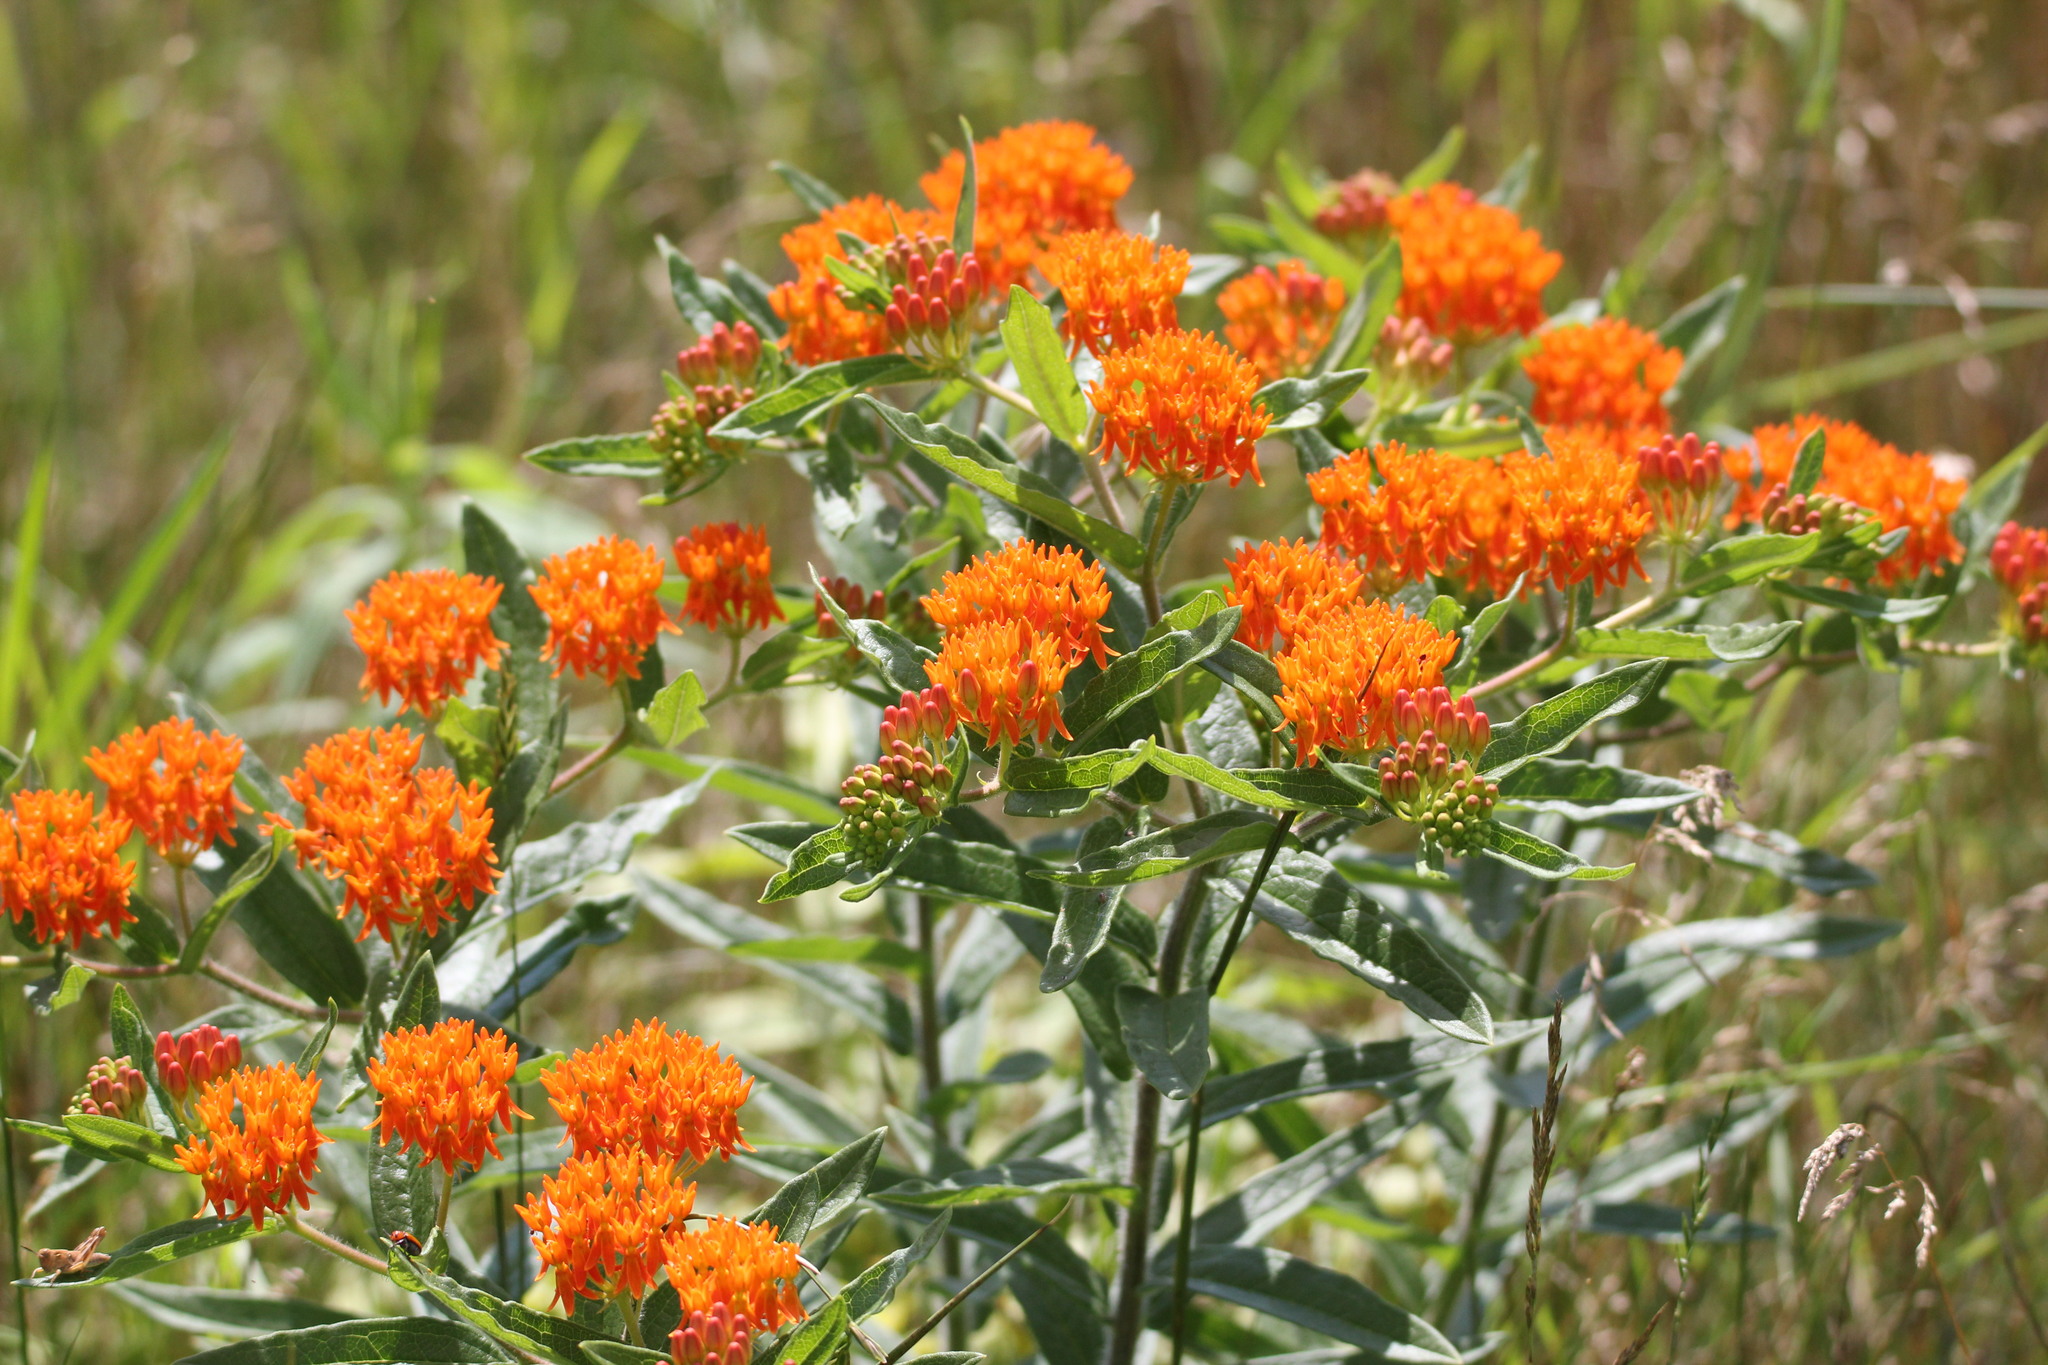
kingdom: Plantae
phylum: Tracheophyta
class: Magnoliopsida
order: Gentianales
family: Apocynaceae
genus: Asclepias
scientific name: Asclepias tuberosa
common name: Butterfly milkweed
